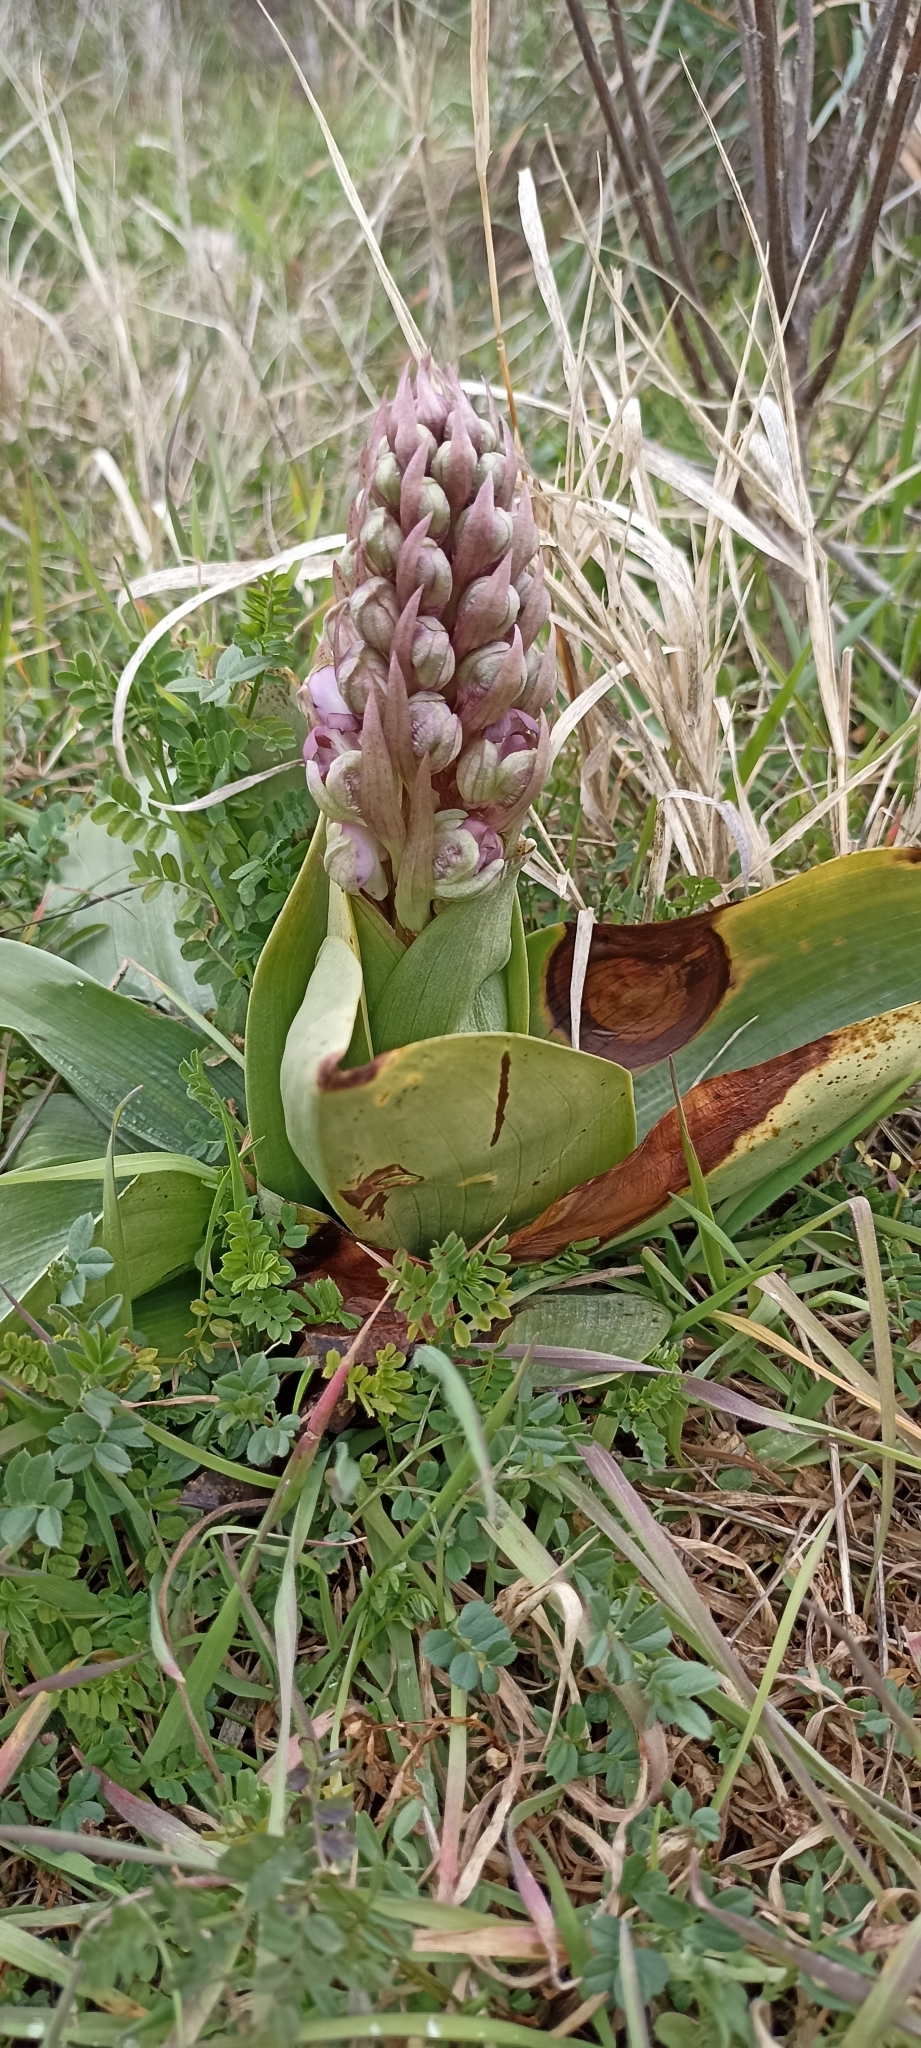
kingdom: Plantae
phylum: Tracheophyta
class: Liliopsida
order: Asparagales
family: Orchidaceae
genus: Himantoglossum
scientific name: Himantoglossum robertianum
